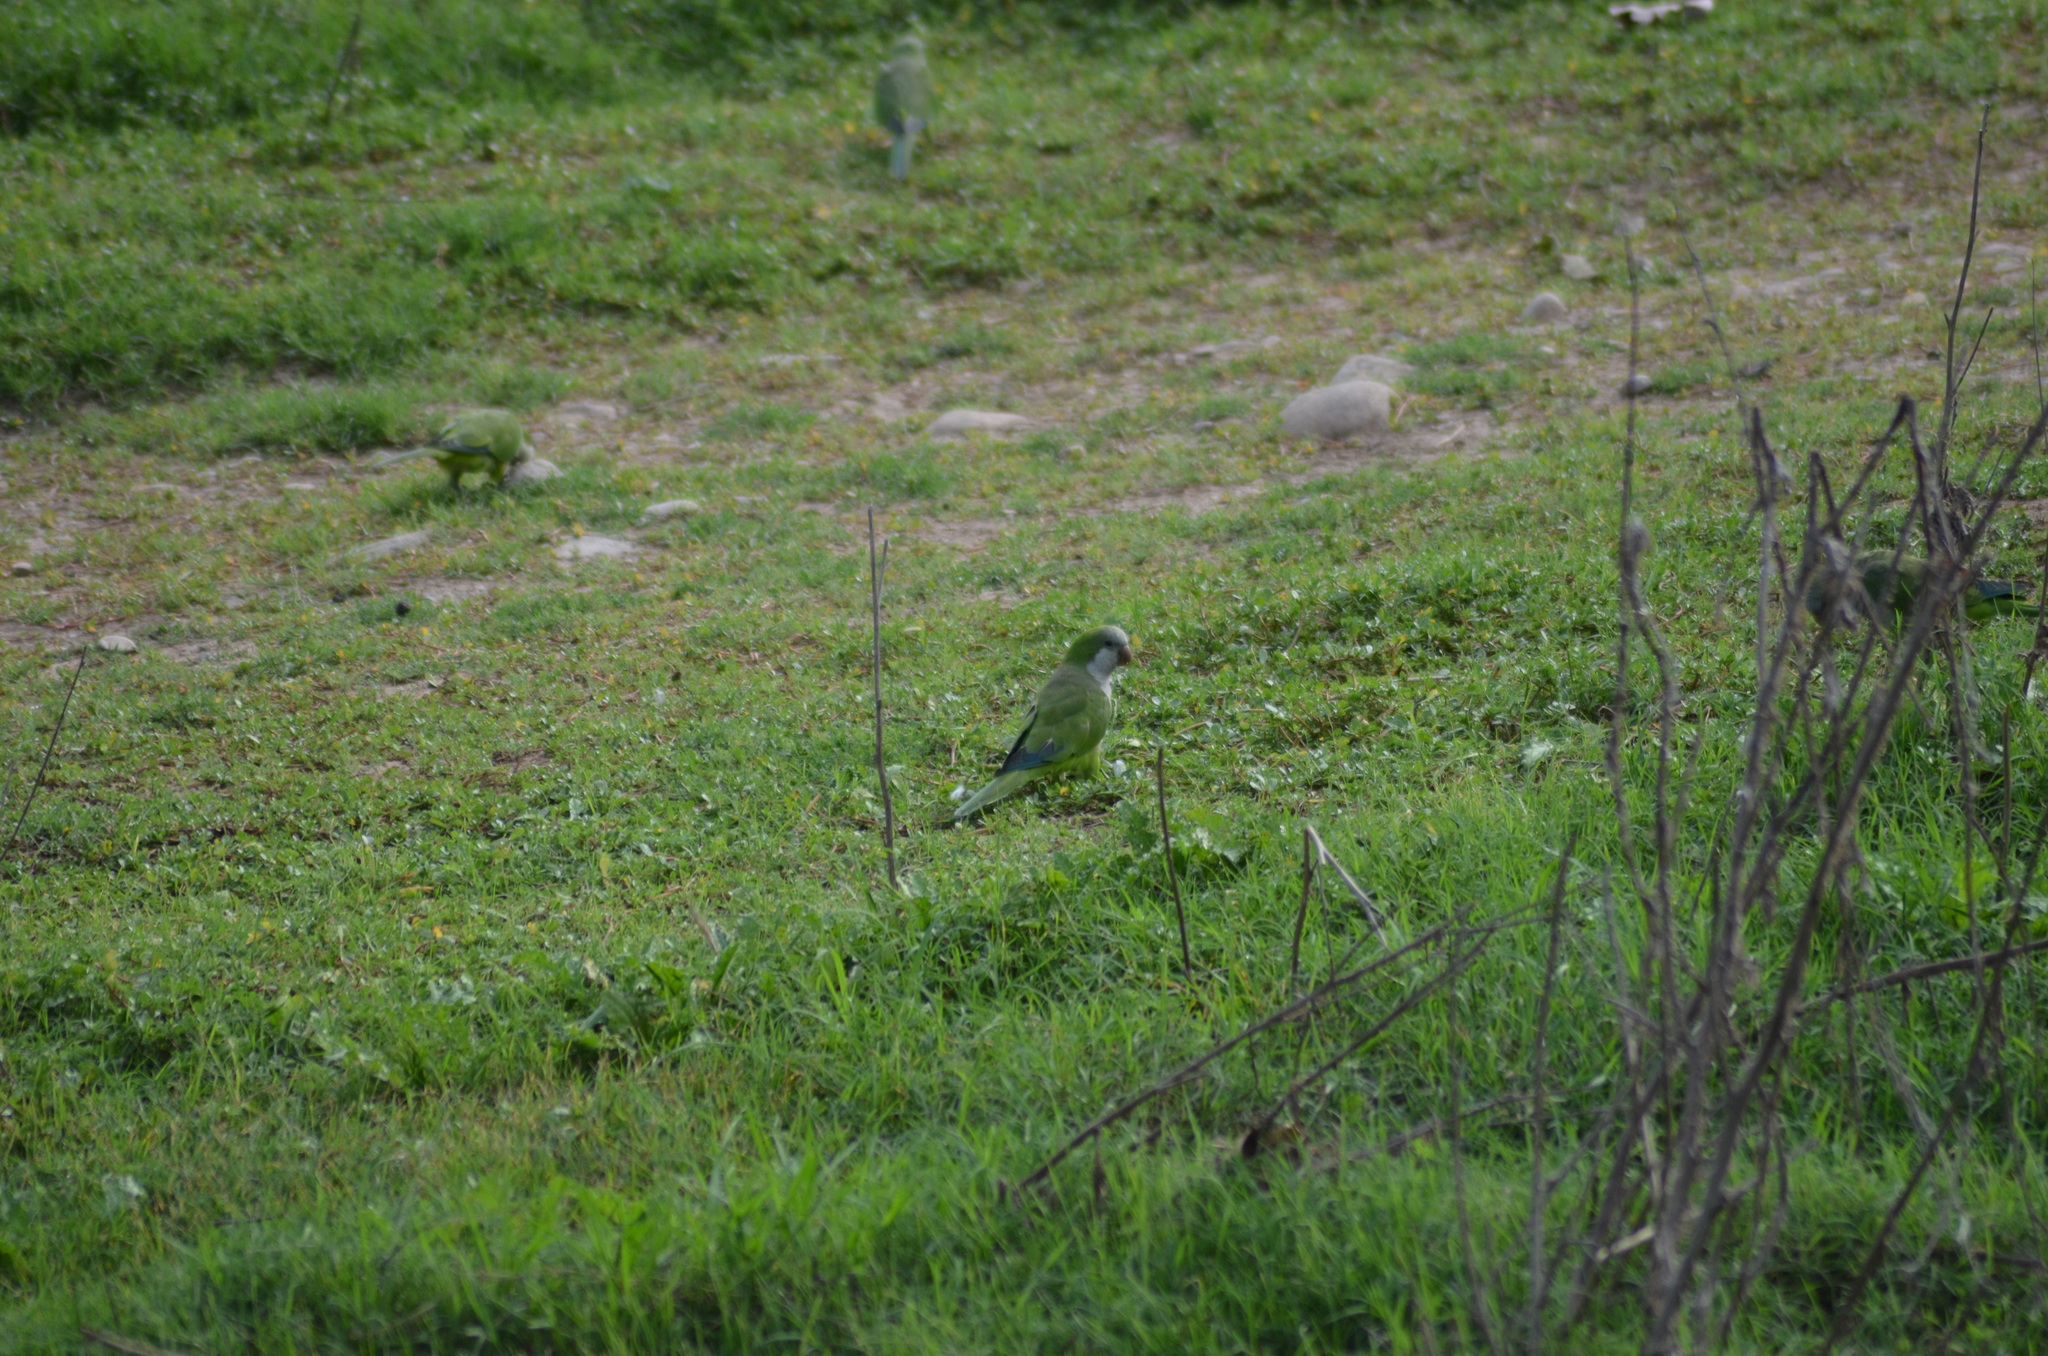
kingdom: Animalia
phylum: Chordata
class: Aves
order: Psittaciformes
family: Psittacidae
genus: Myiopsitta
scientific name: Myiopsitta monachus
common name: Monk parakeet
